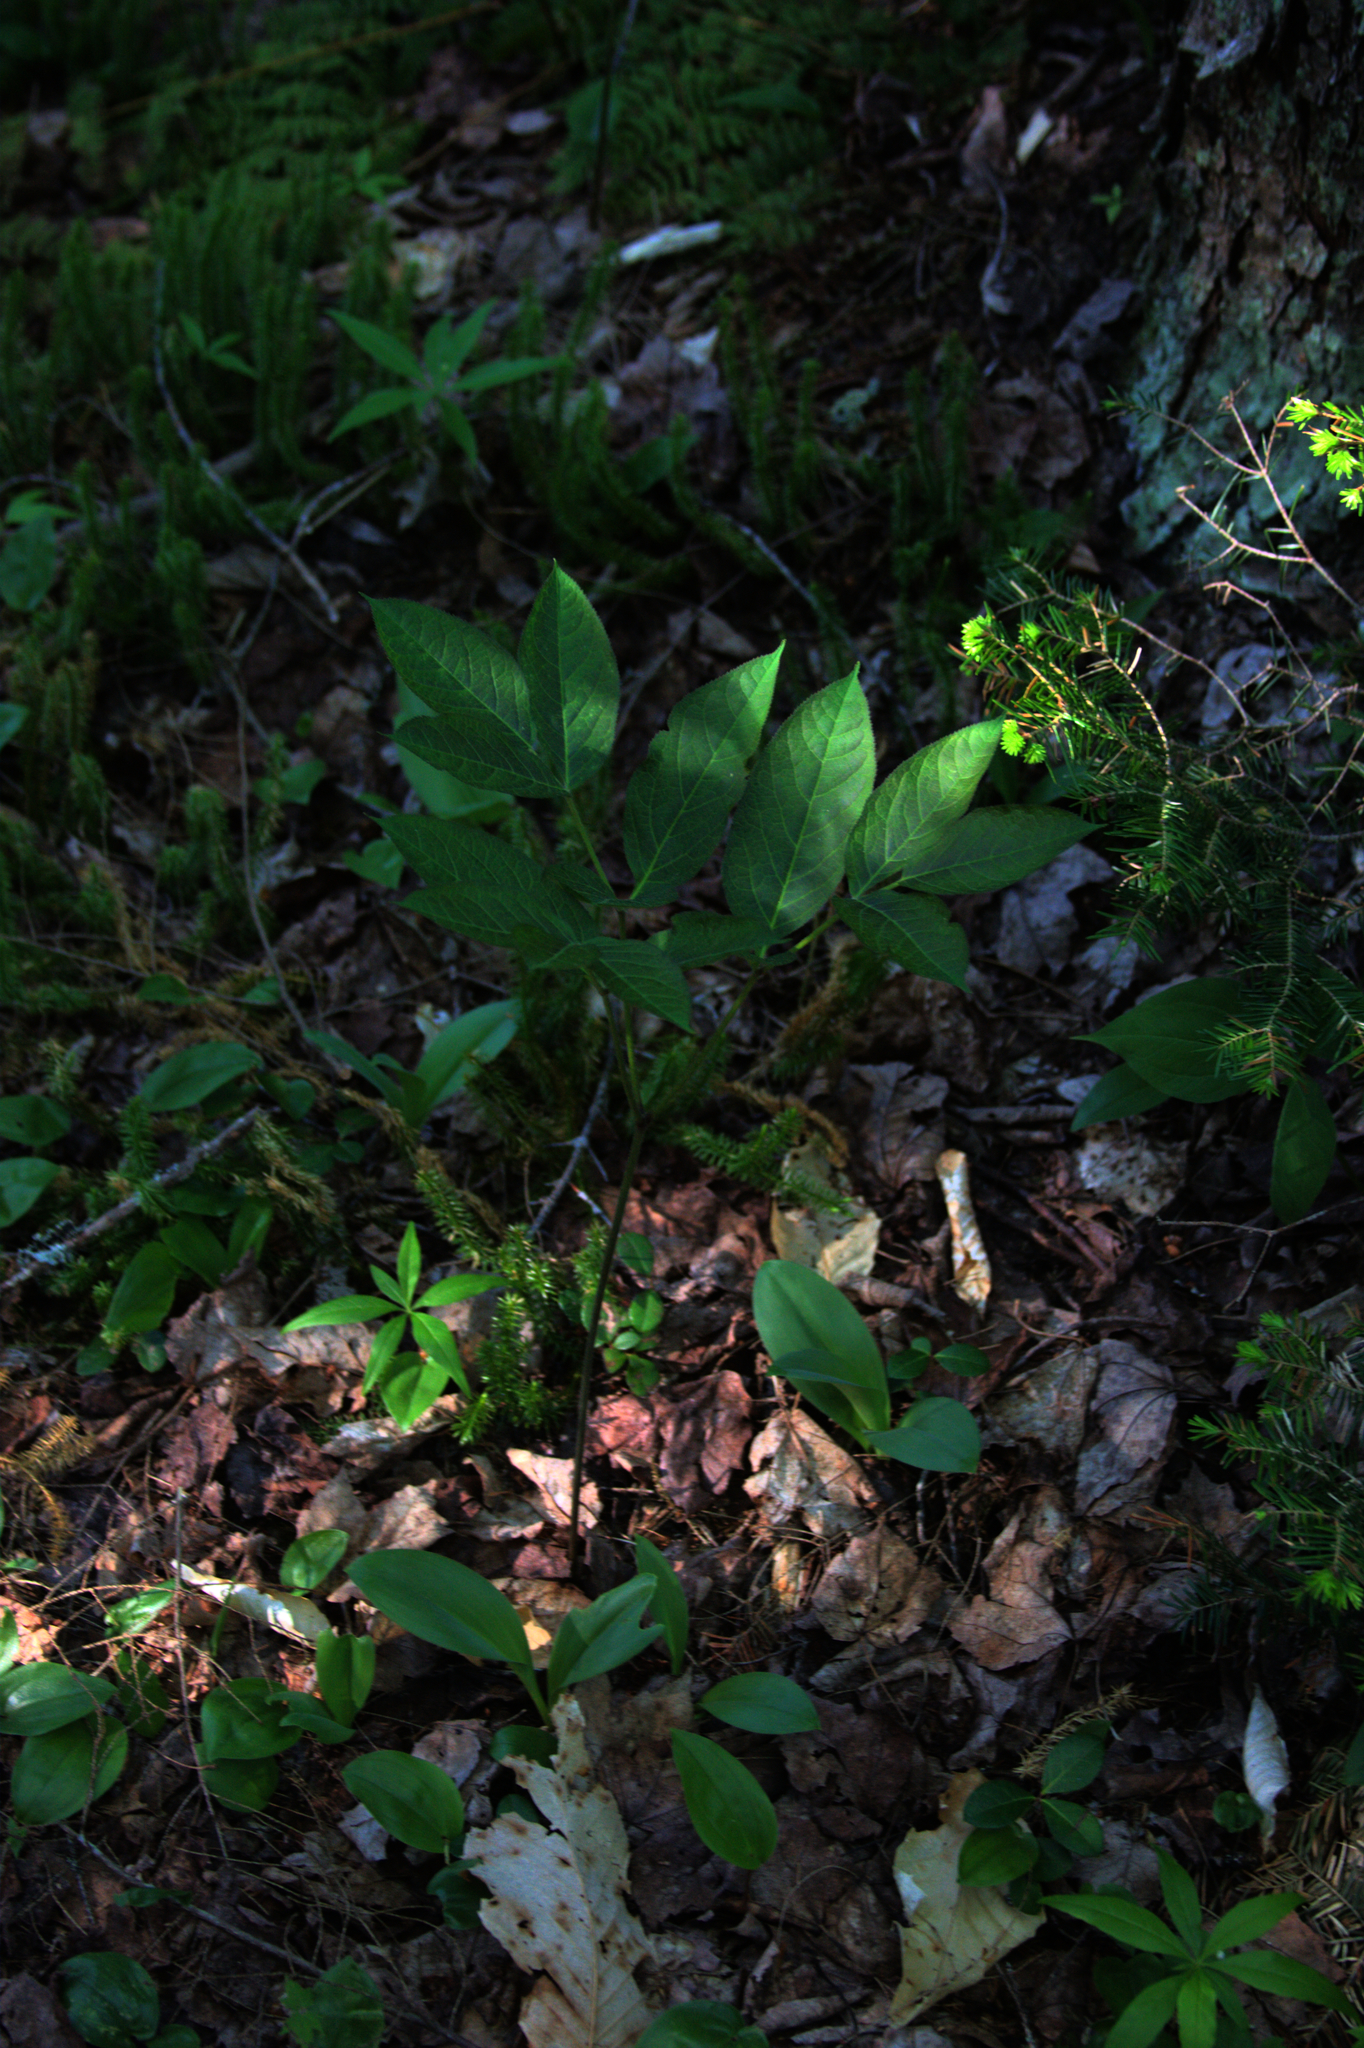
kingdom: Plantae
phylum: Tracheophyta
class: Liliopsida
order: Asparagales
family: Asparagaceae
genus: Maianthemum
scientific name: Maianthemum canadense
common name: False lily-of-the-valley
